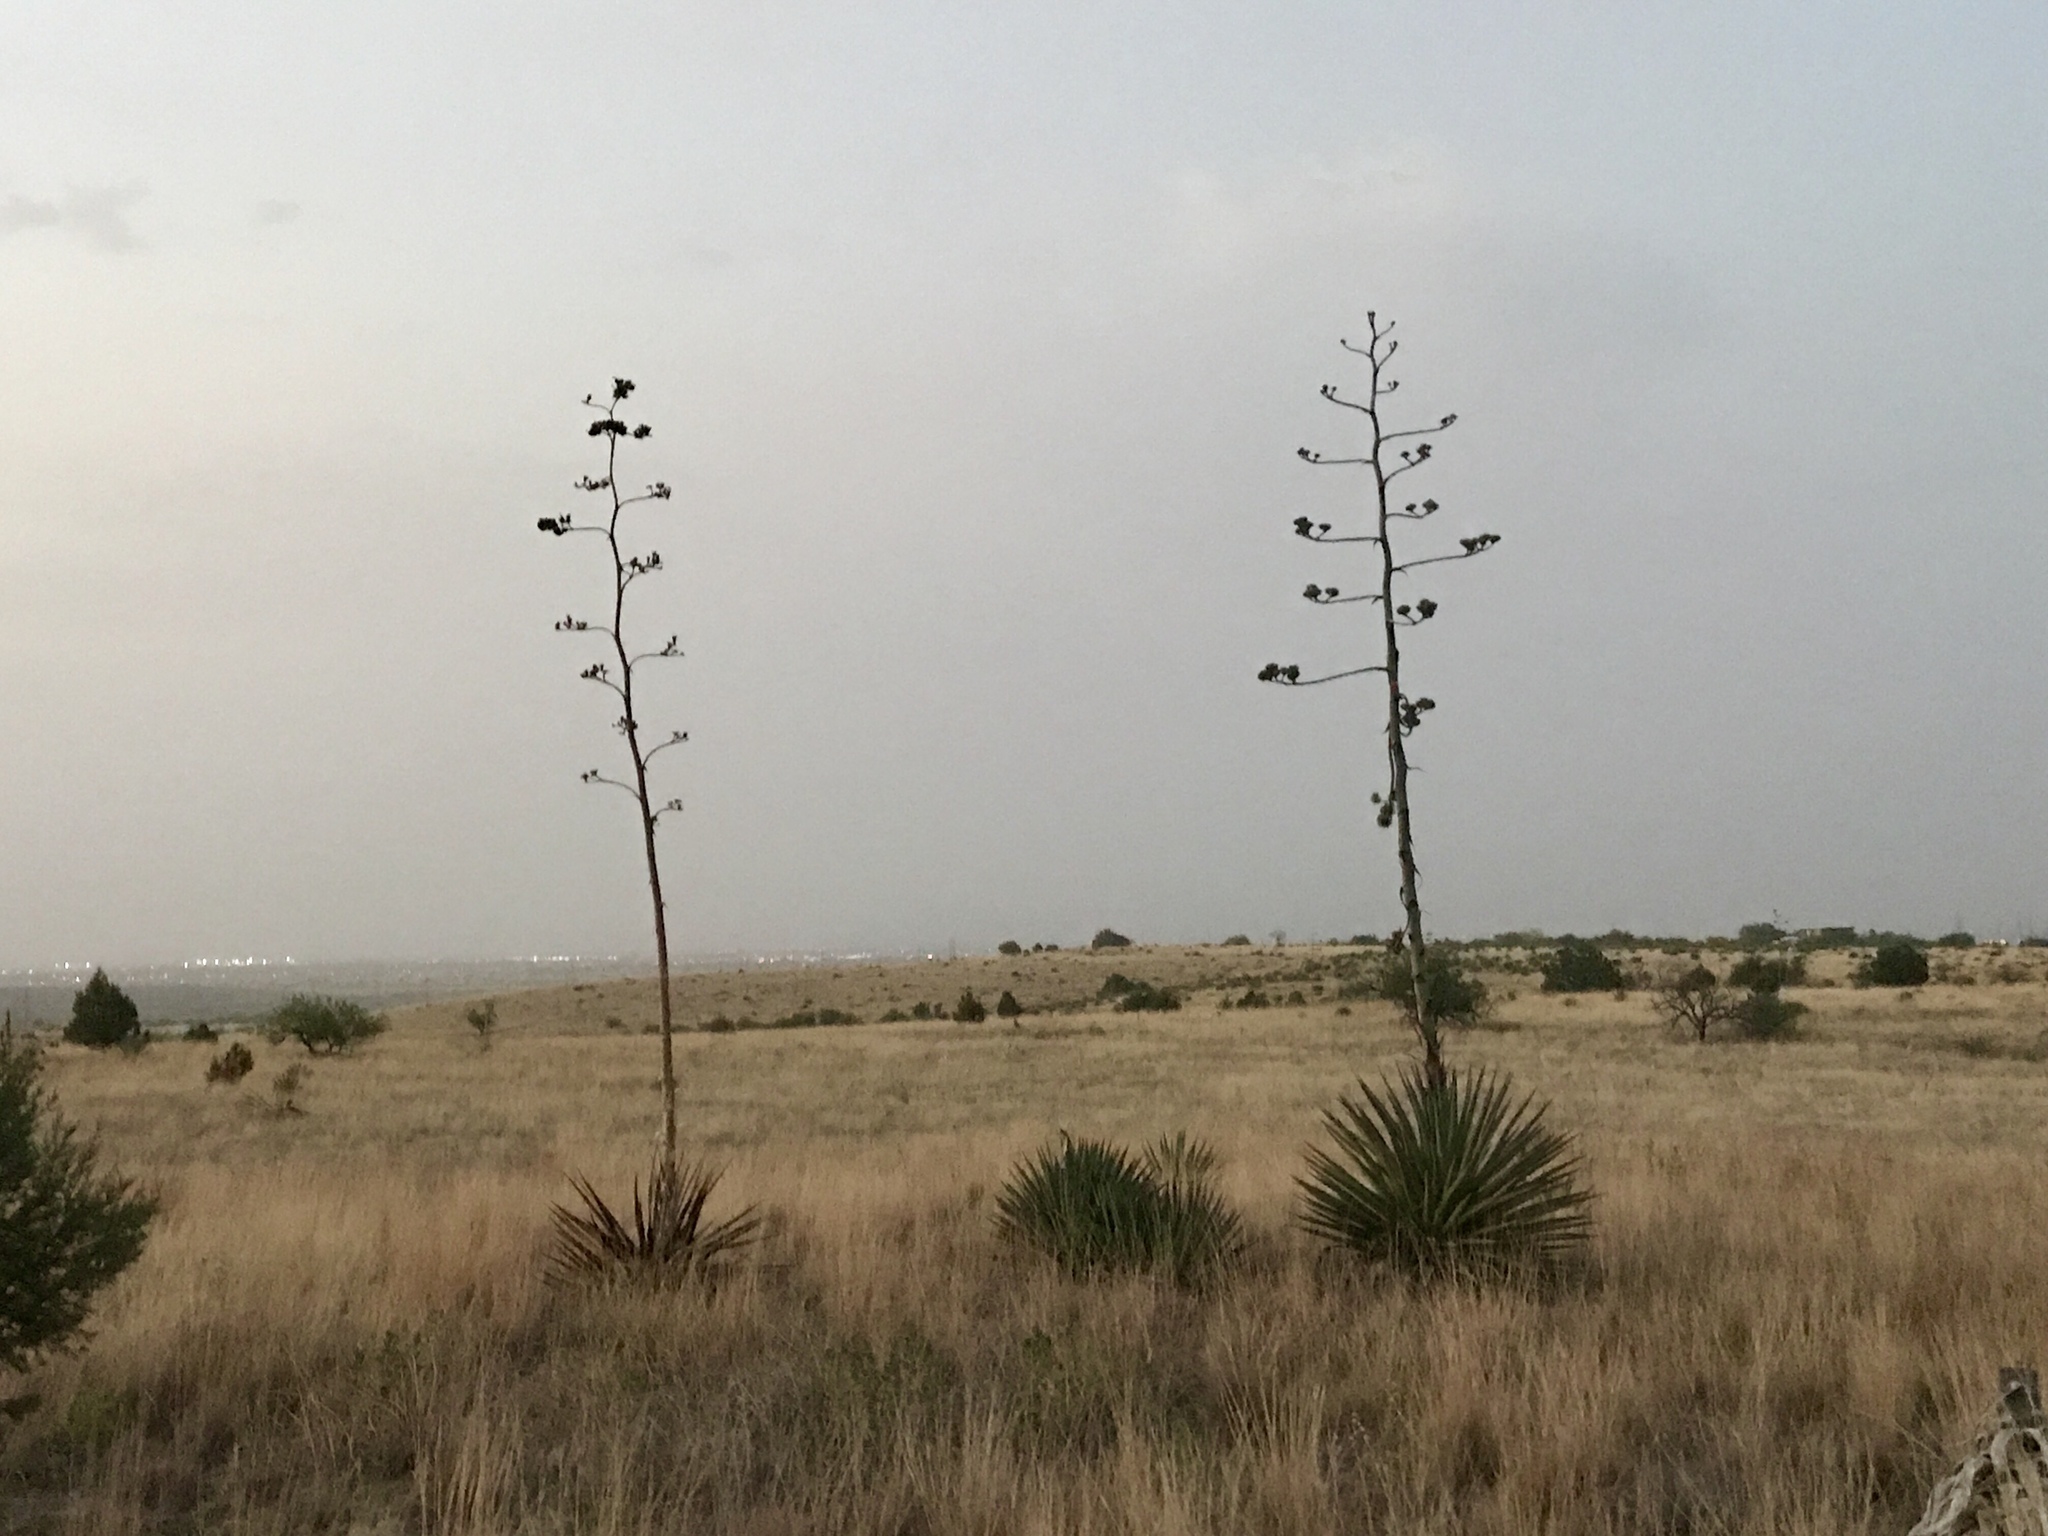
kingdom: Plantae
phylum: Tracheophyta
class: Liliopsida
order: Asparagales
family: Asparagaceae
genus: Agave
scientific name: Agave palmeri
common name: Palmer agave
